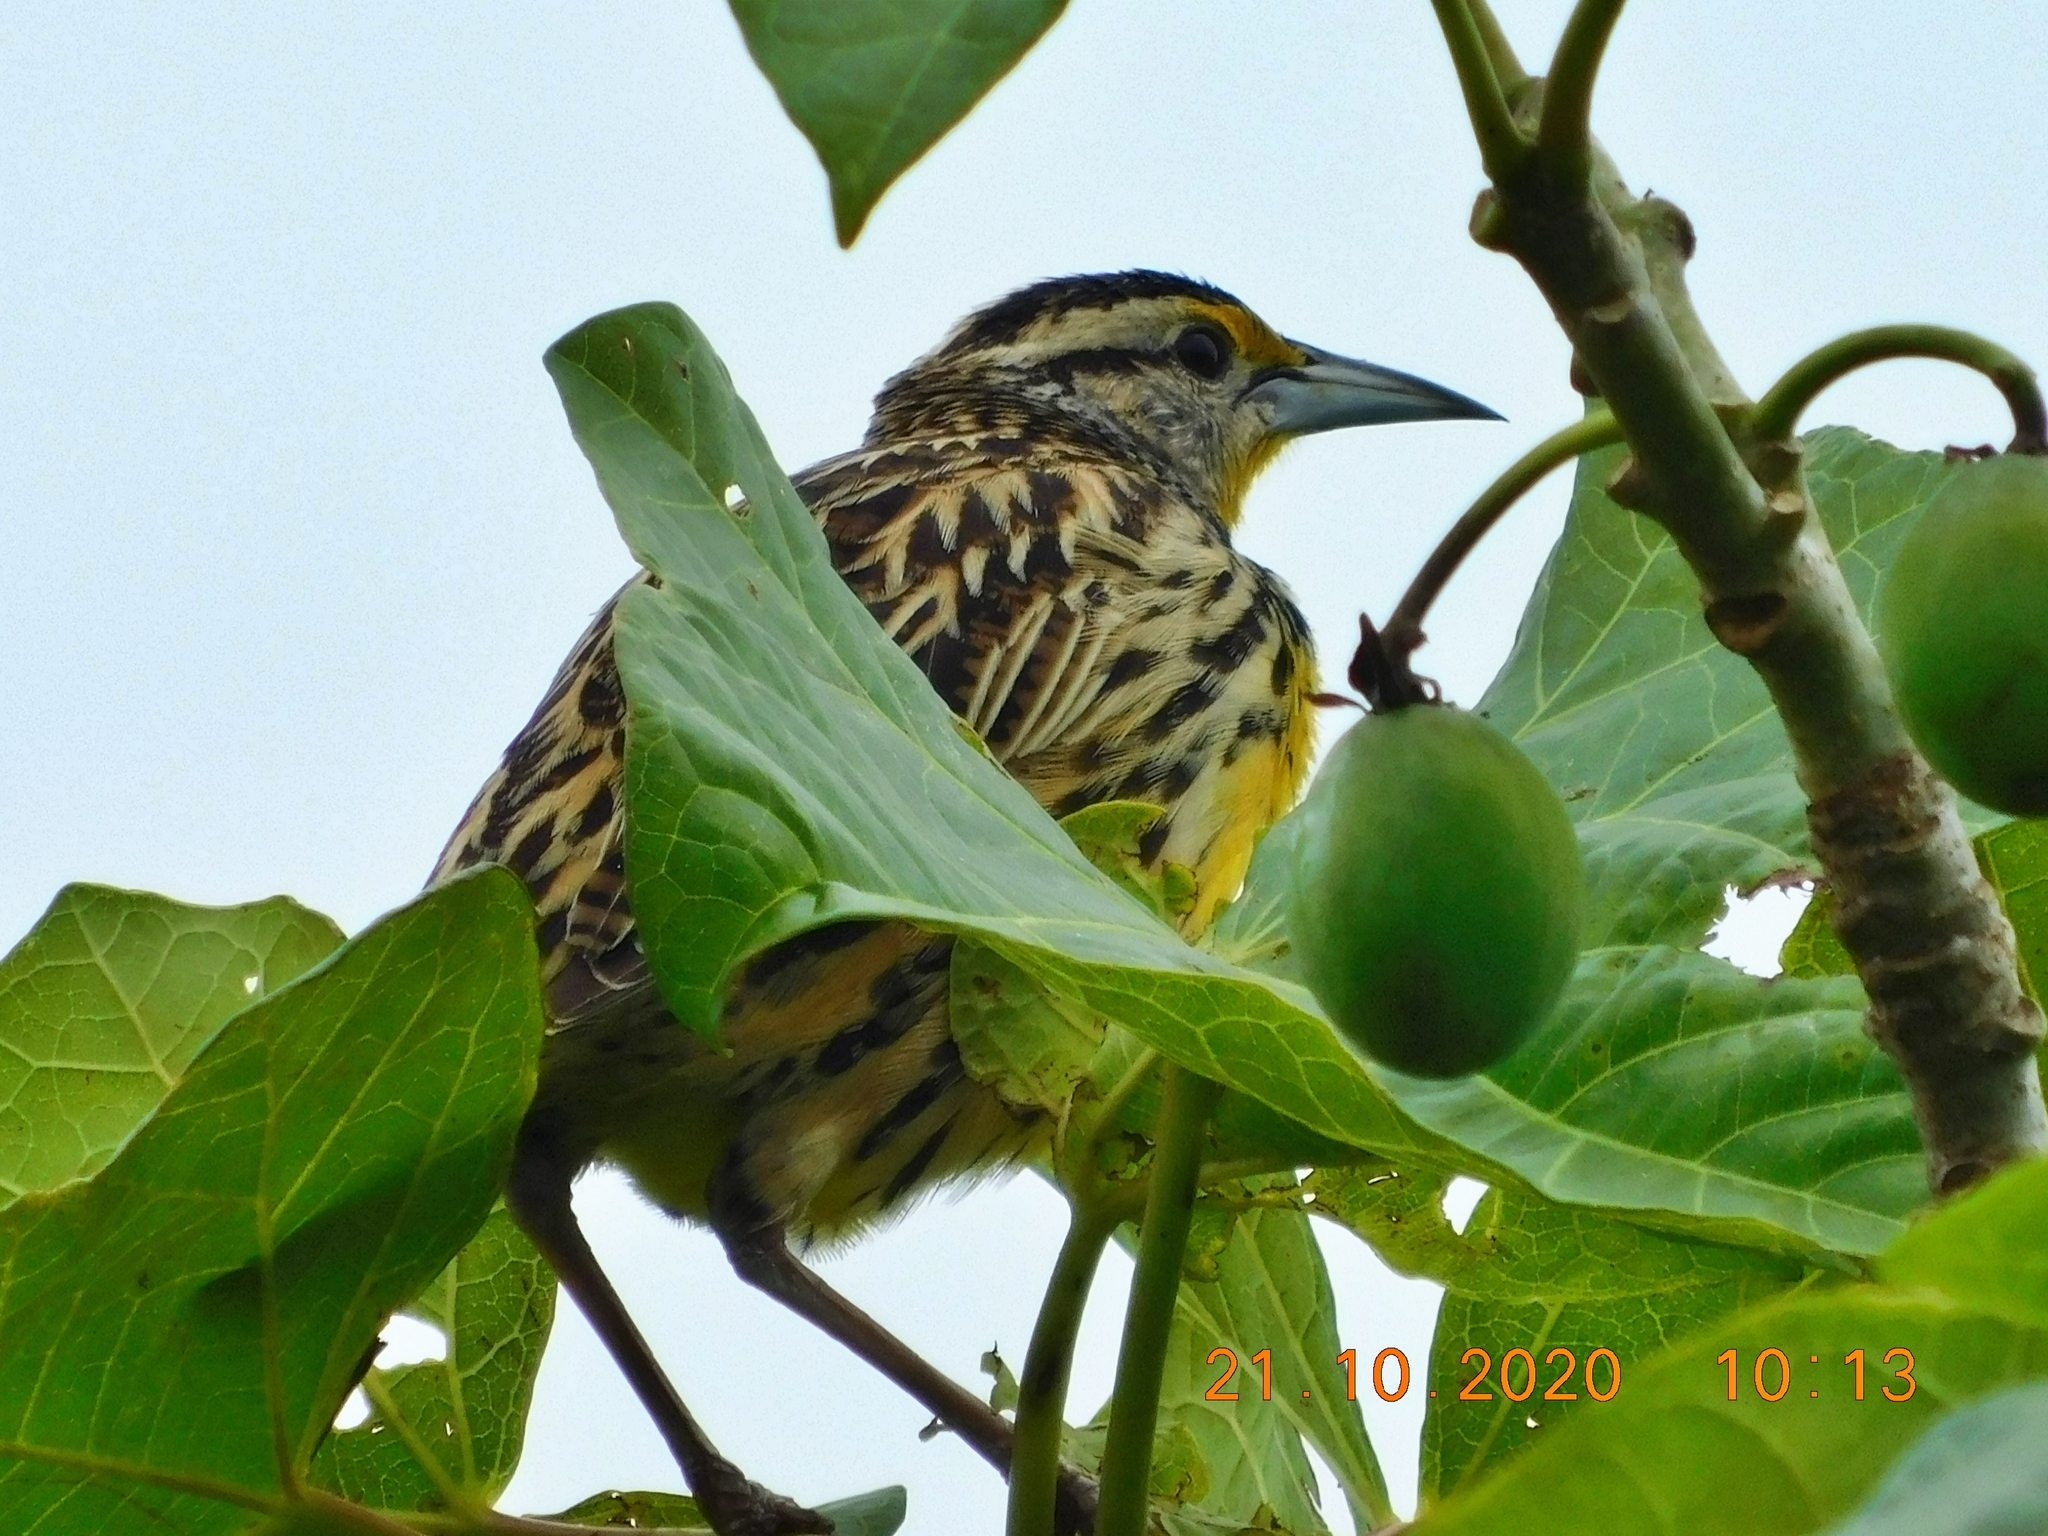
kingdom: Animalia
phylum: Chordata
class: Aves
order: Passeriformes
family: Icteridae
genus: Sturnella
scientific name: Sturnella magna
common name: Eastern meadowlark
